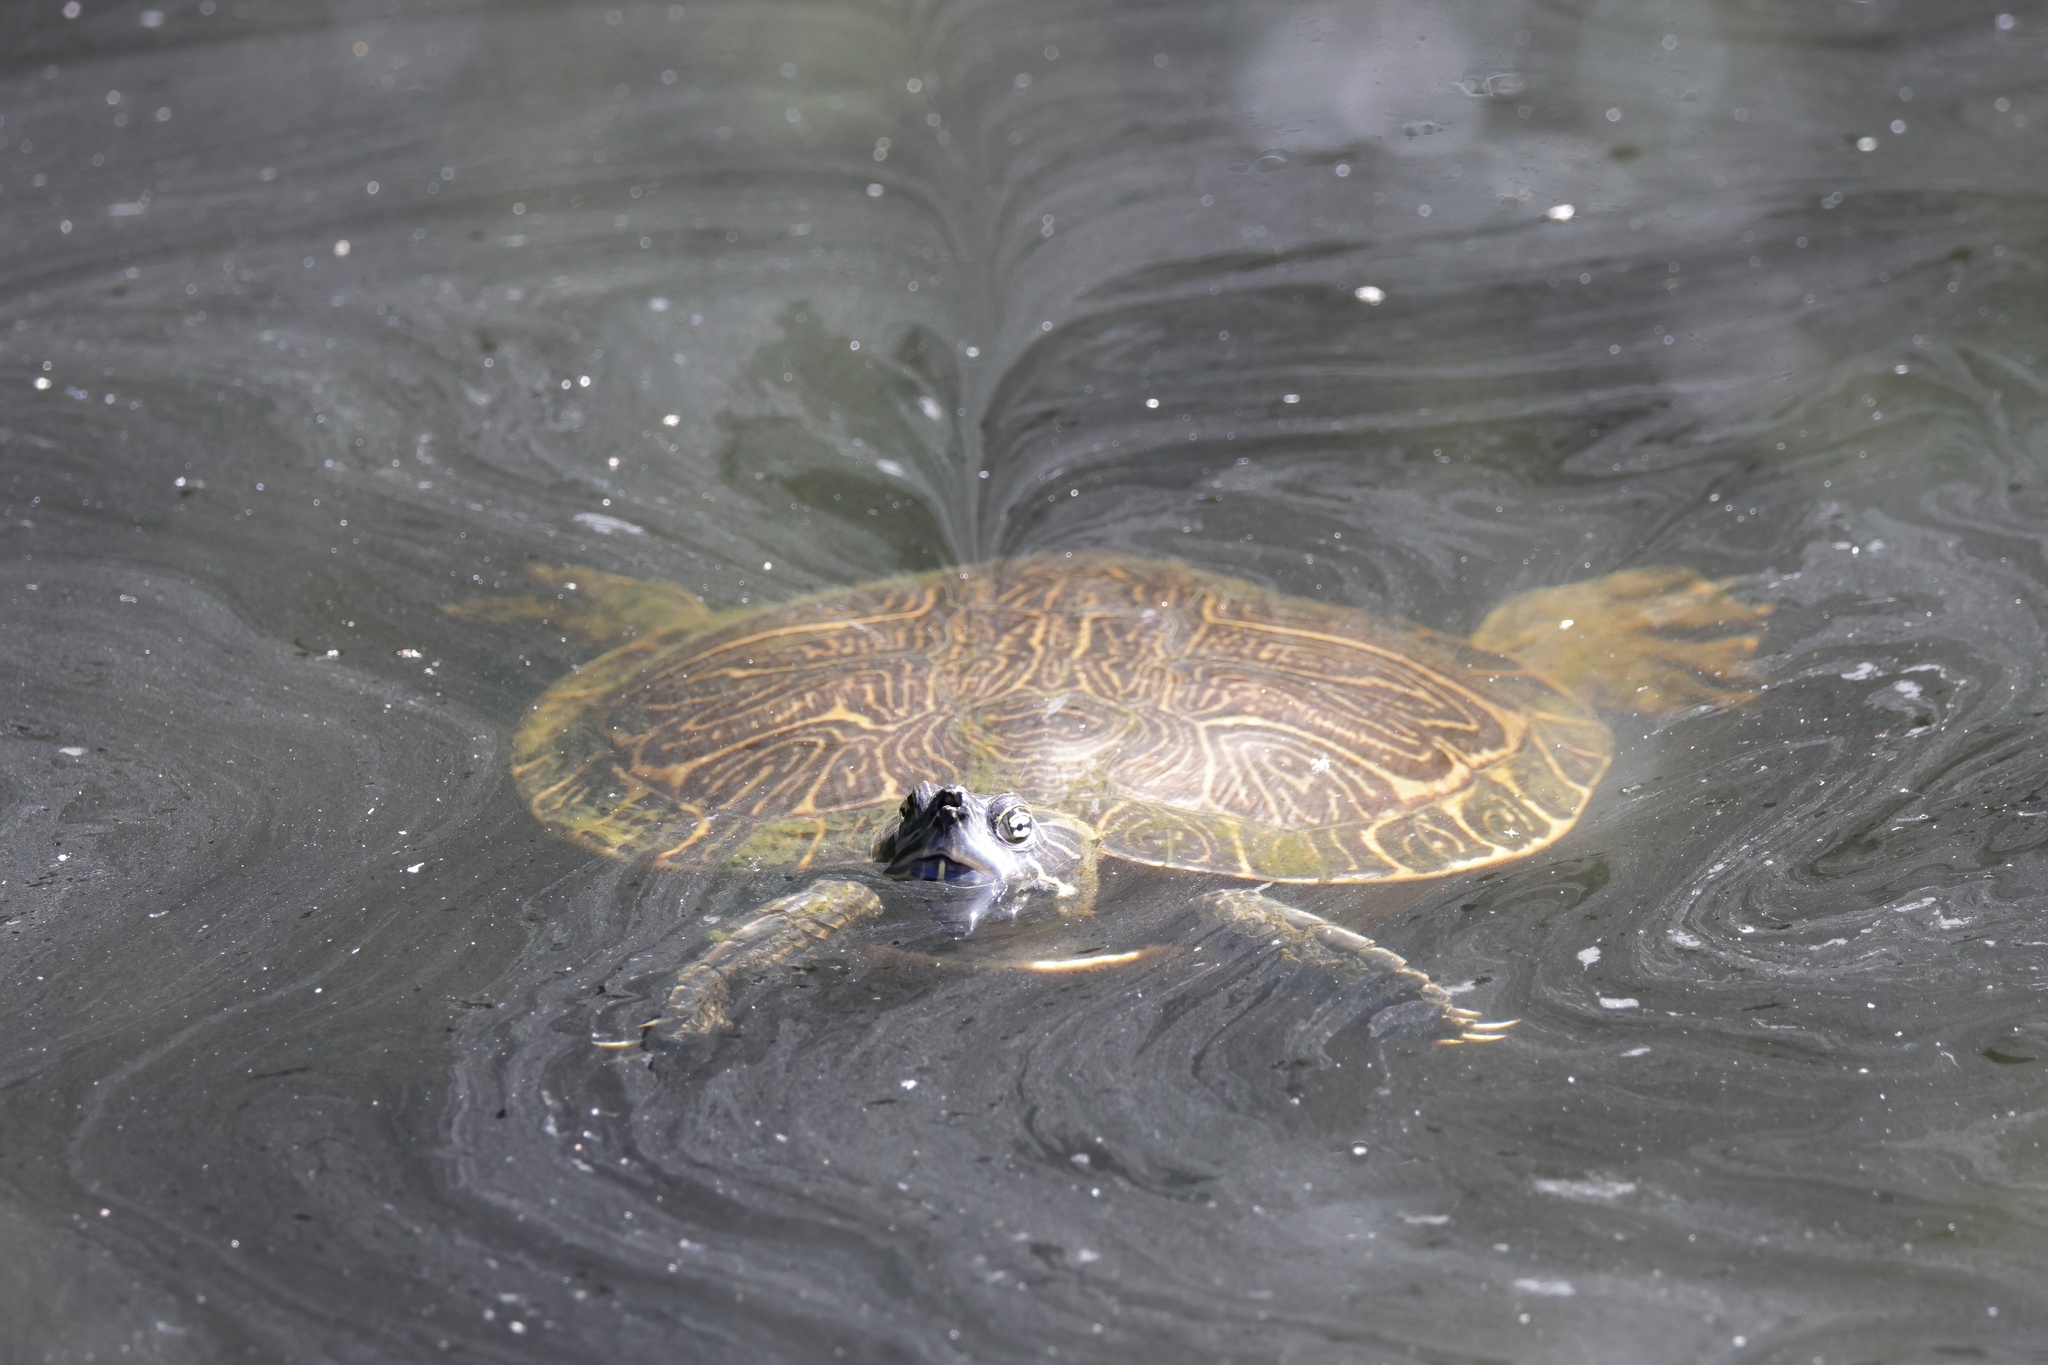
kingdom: Animalia
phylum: Chordata
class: Testudines
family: Emydidae
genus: Pseudemys
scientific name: Pseudemys concinna
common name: Eastern river cooter
